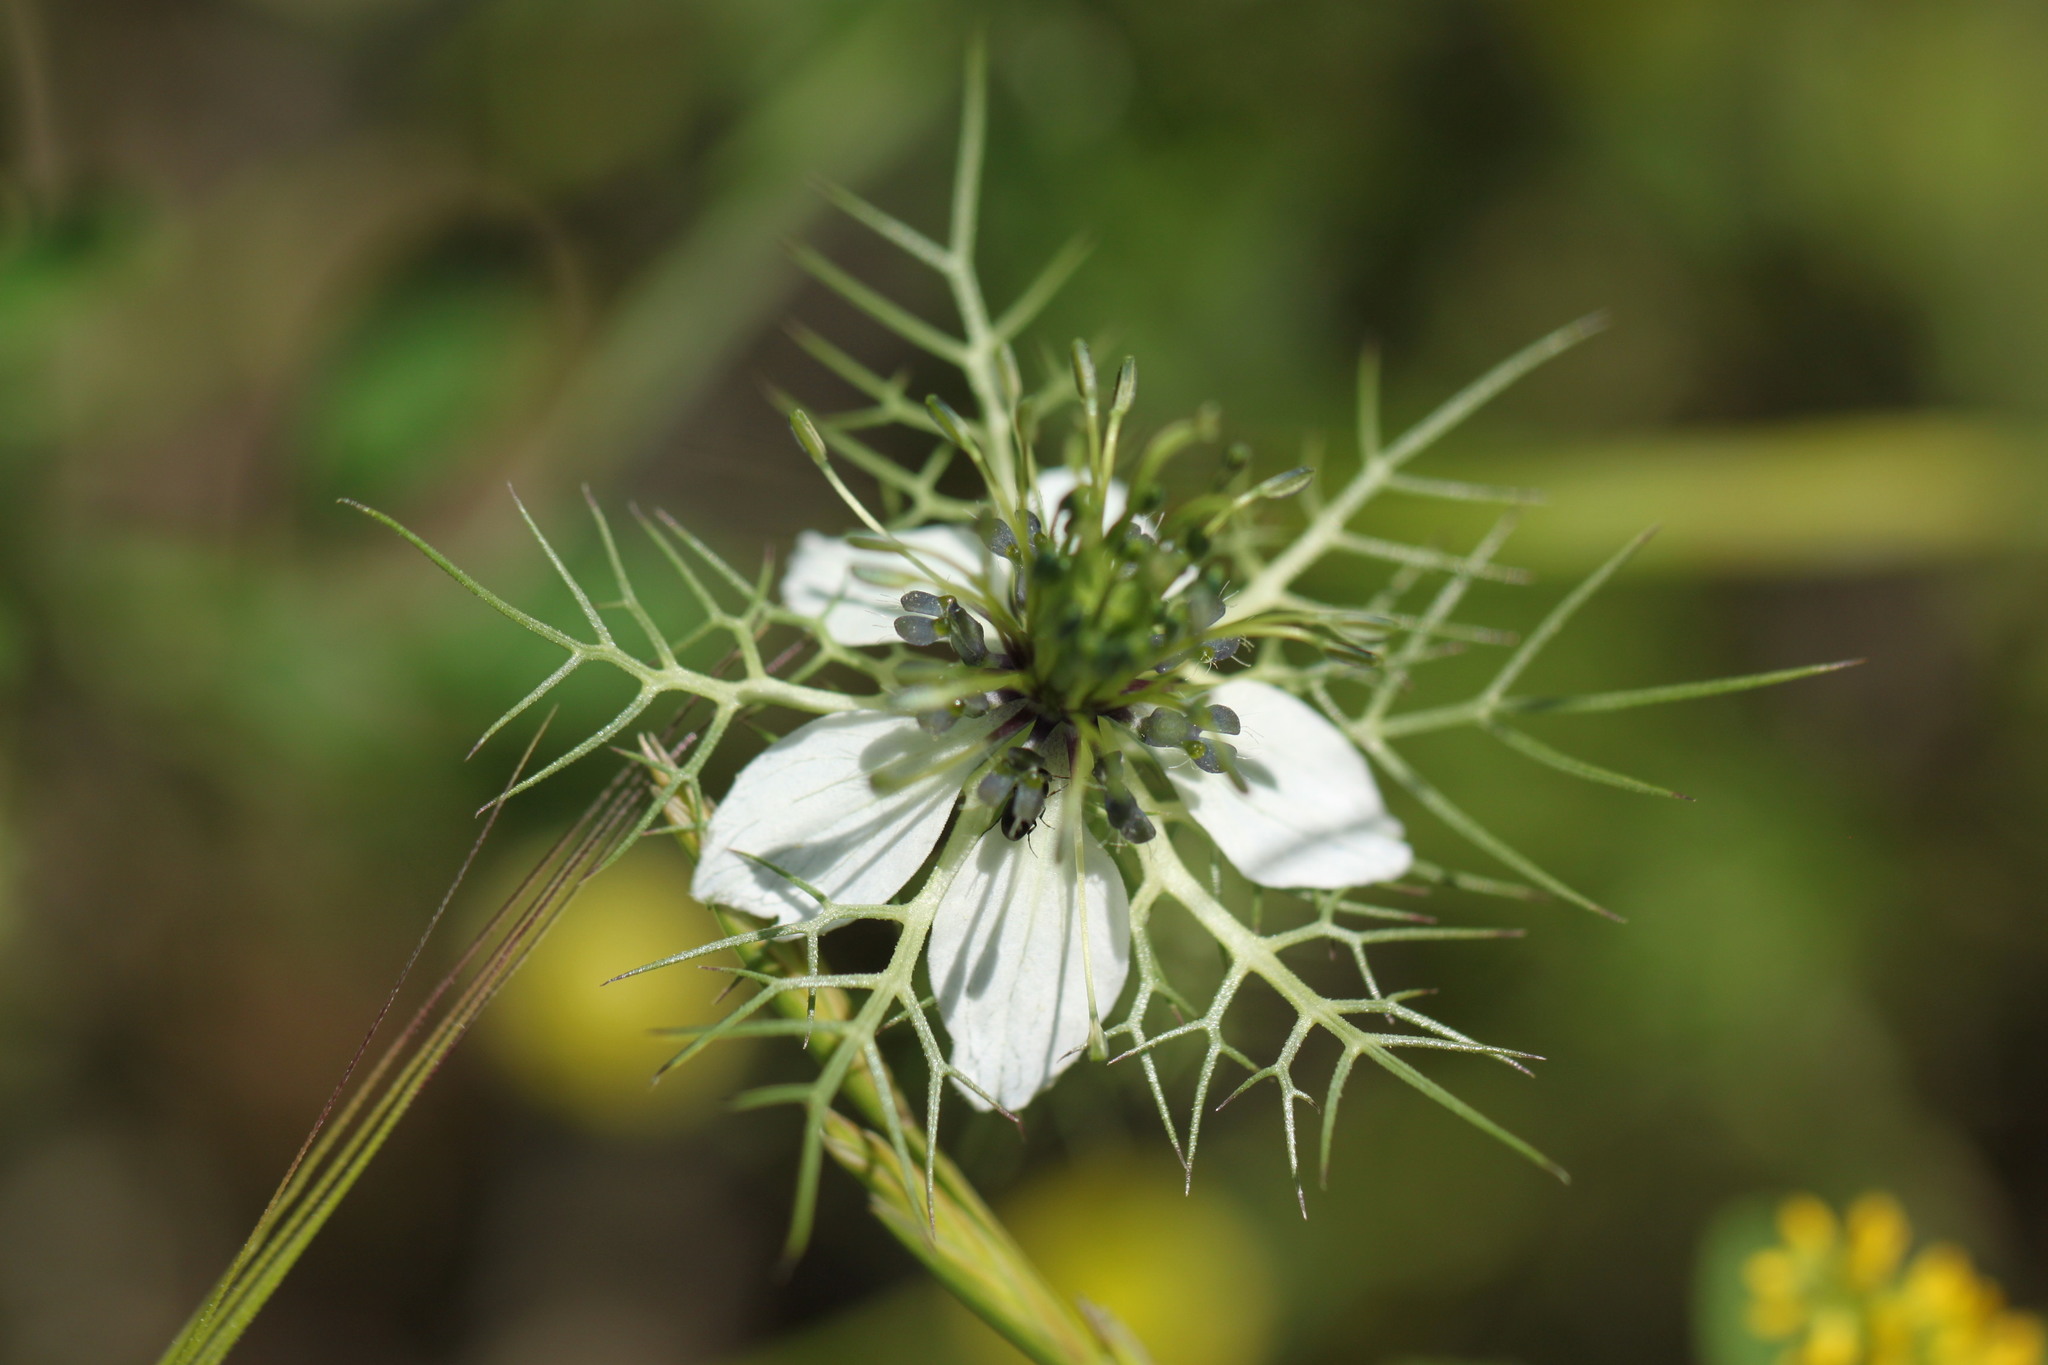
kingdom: Plantae
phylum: Tracheophyta
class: Magnoliopsida
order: Ranunculales
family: Ranunculaceae
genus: Nigella
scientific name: Nigella damascena
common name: Love-in-a-mist
